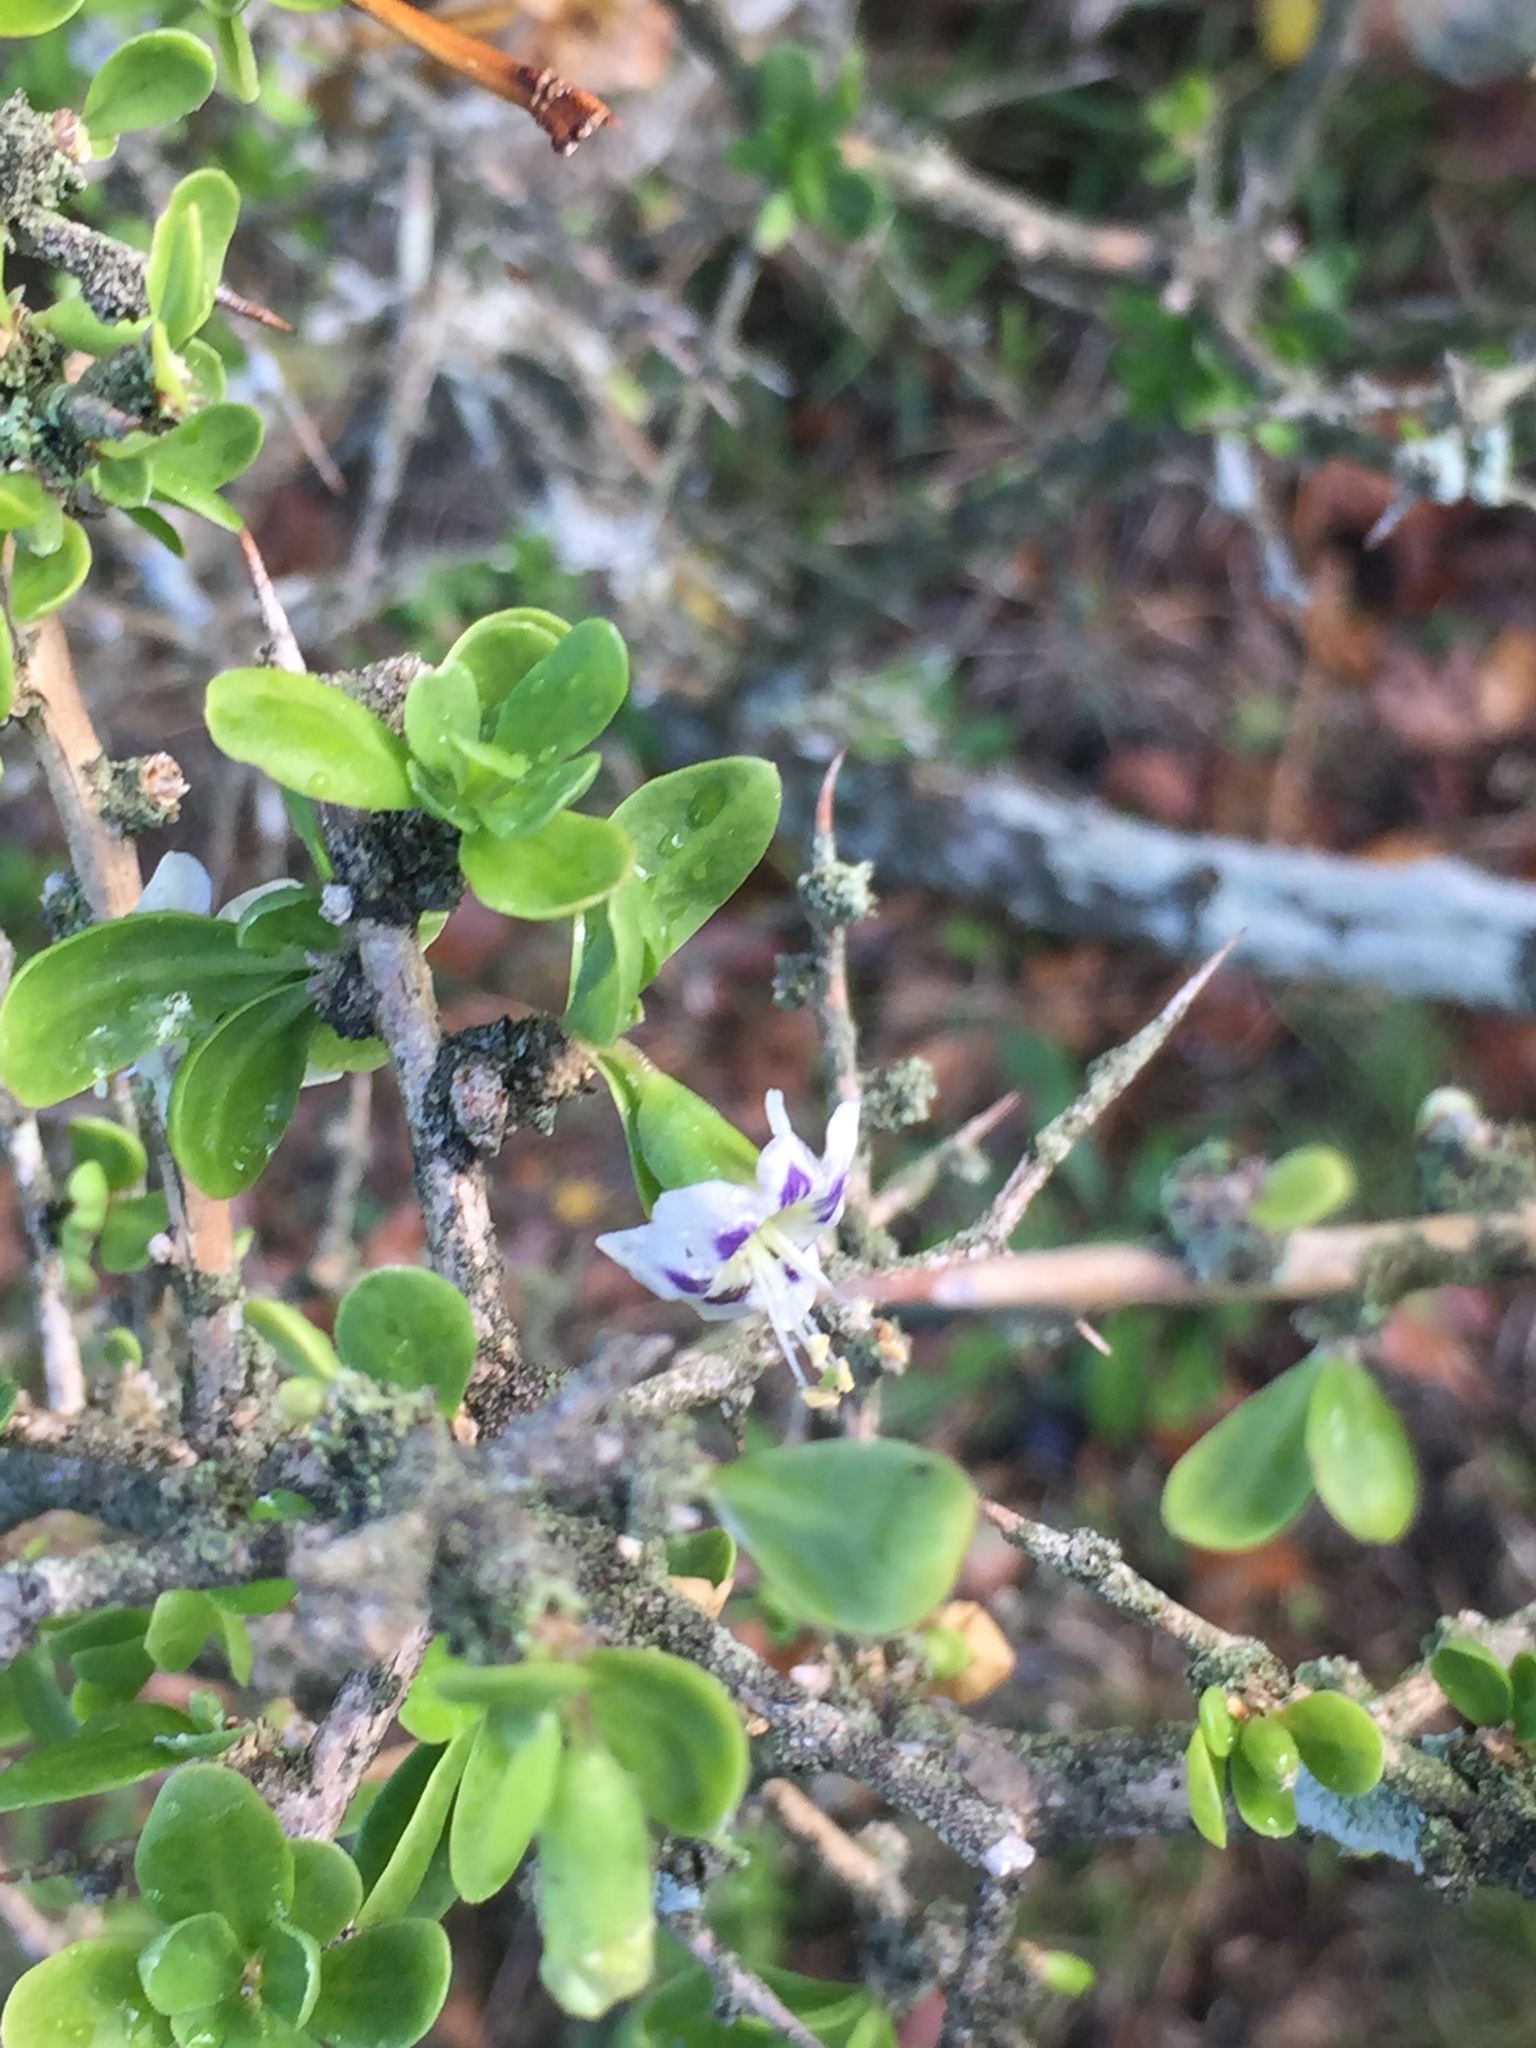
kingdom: Plantae
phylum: Tracheophyta
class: Magnoliopsida
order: Solanales
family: Solanaceae
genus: Lycium
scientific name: Lycium ferocissimum
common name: African boxthorn
